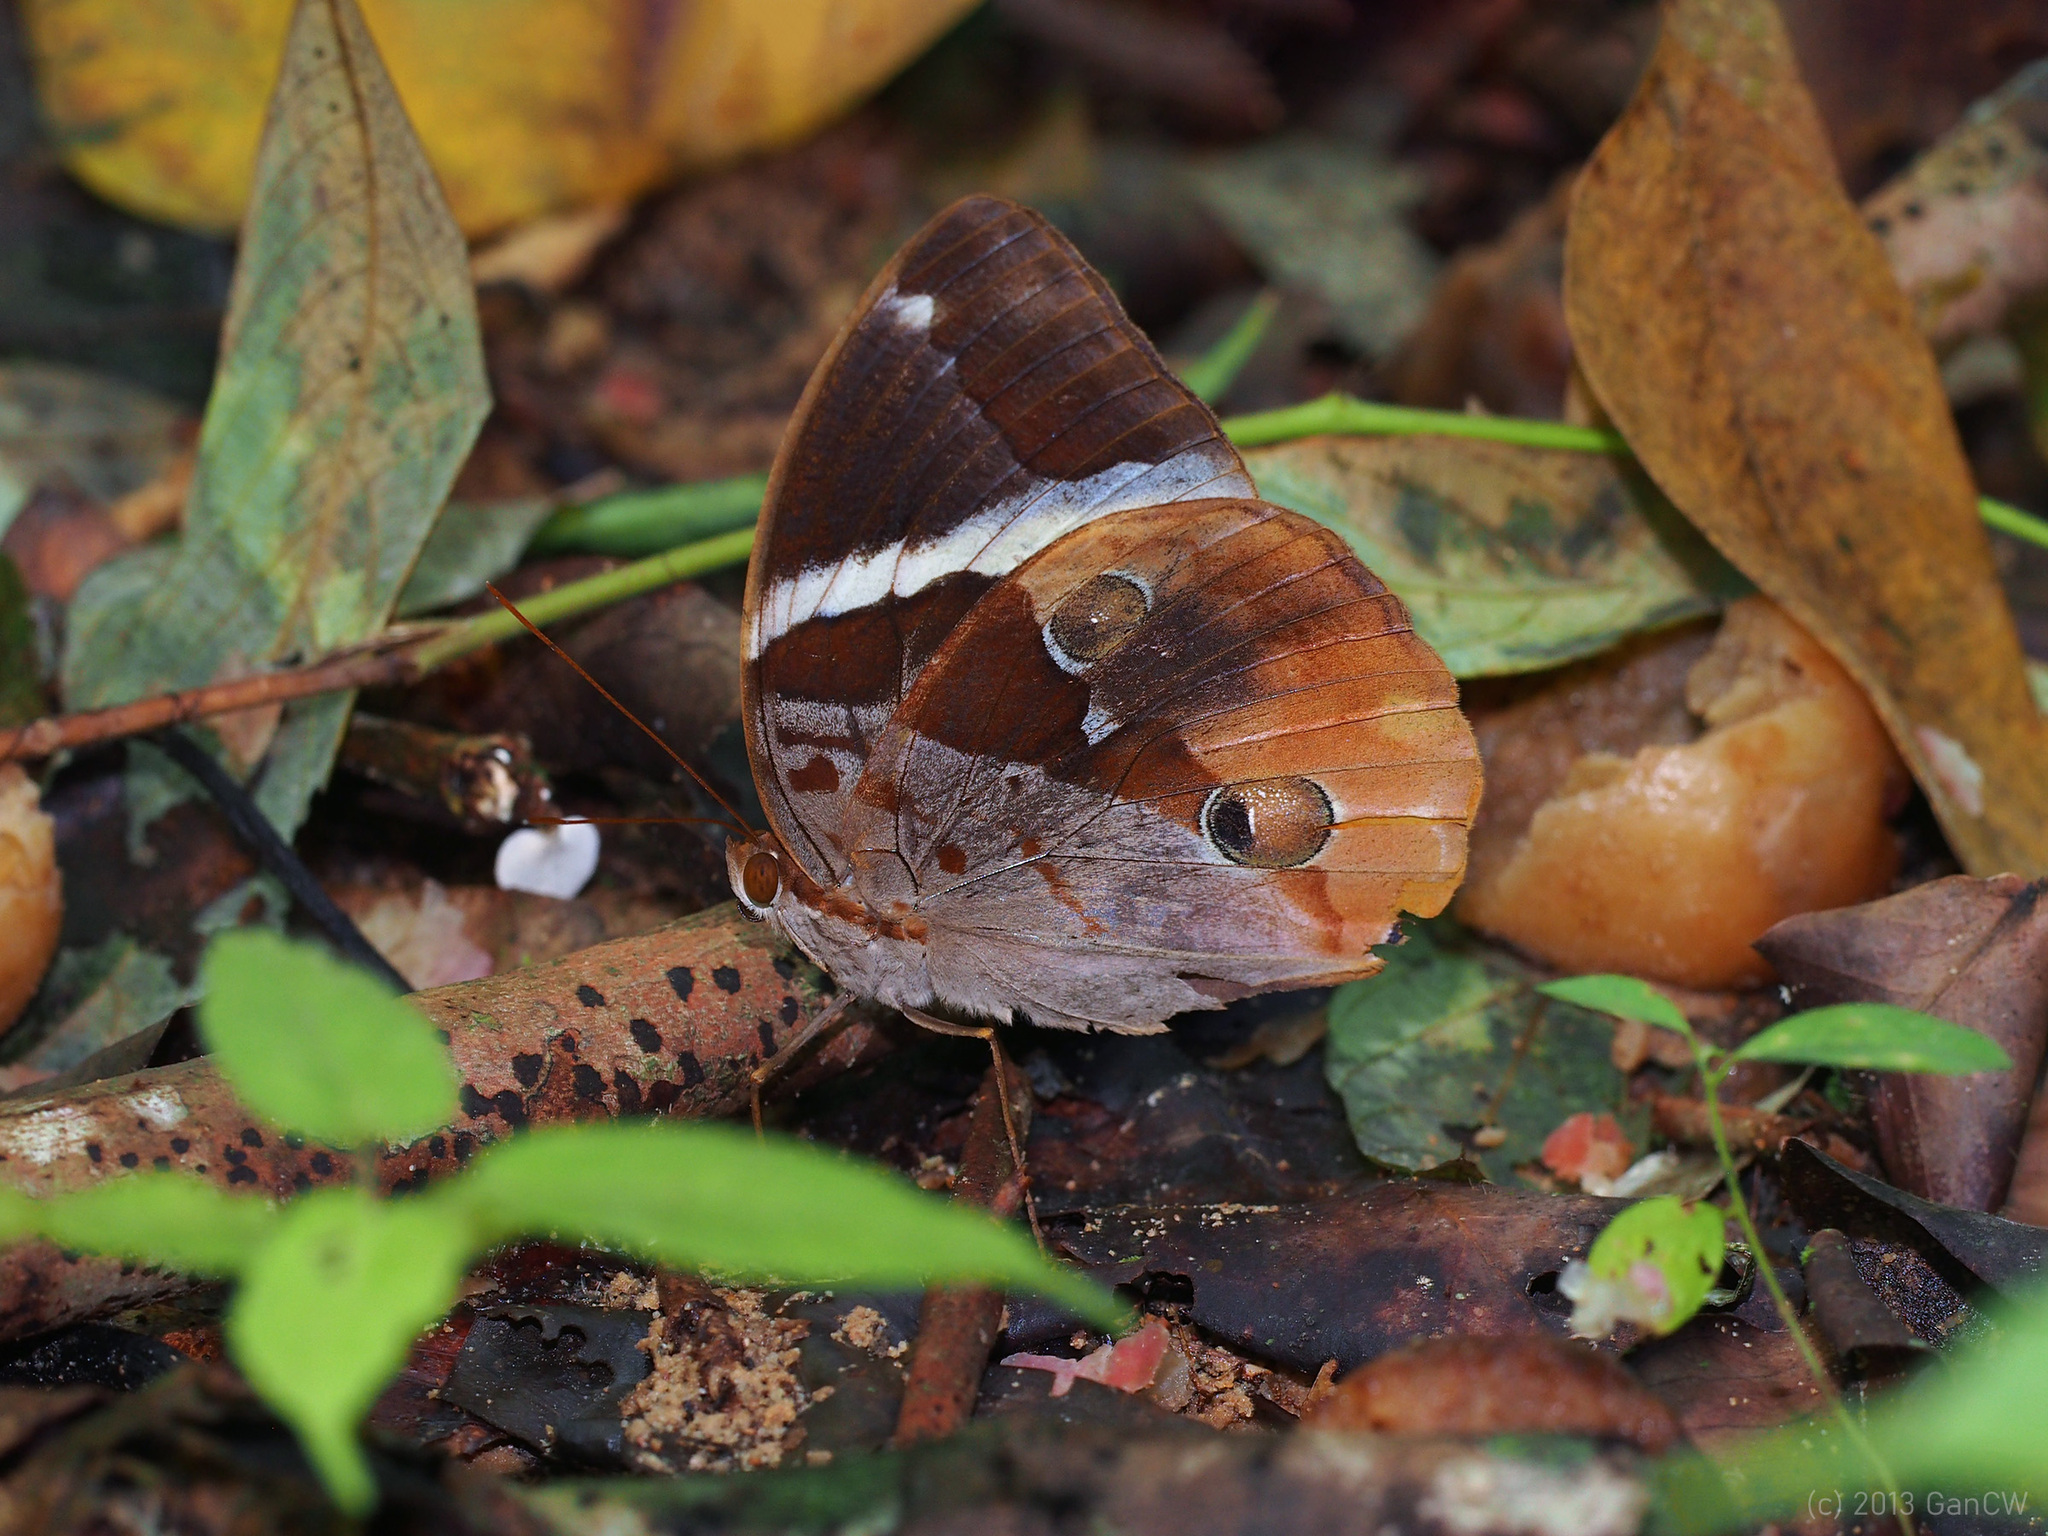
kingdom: Animalia
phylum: Arthropoda
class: Insecta
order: Lepidoptera
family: Nymphalidae
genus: Thauria
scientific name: Thauria aliris
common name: Tufted jungle king
